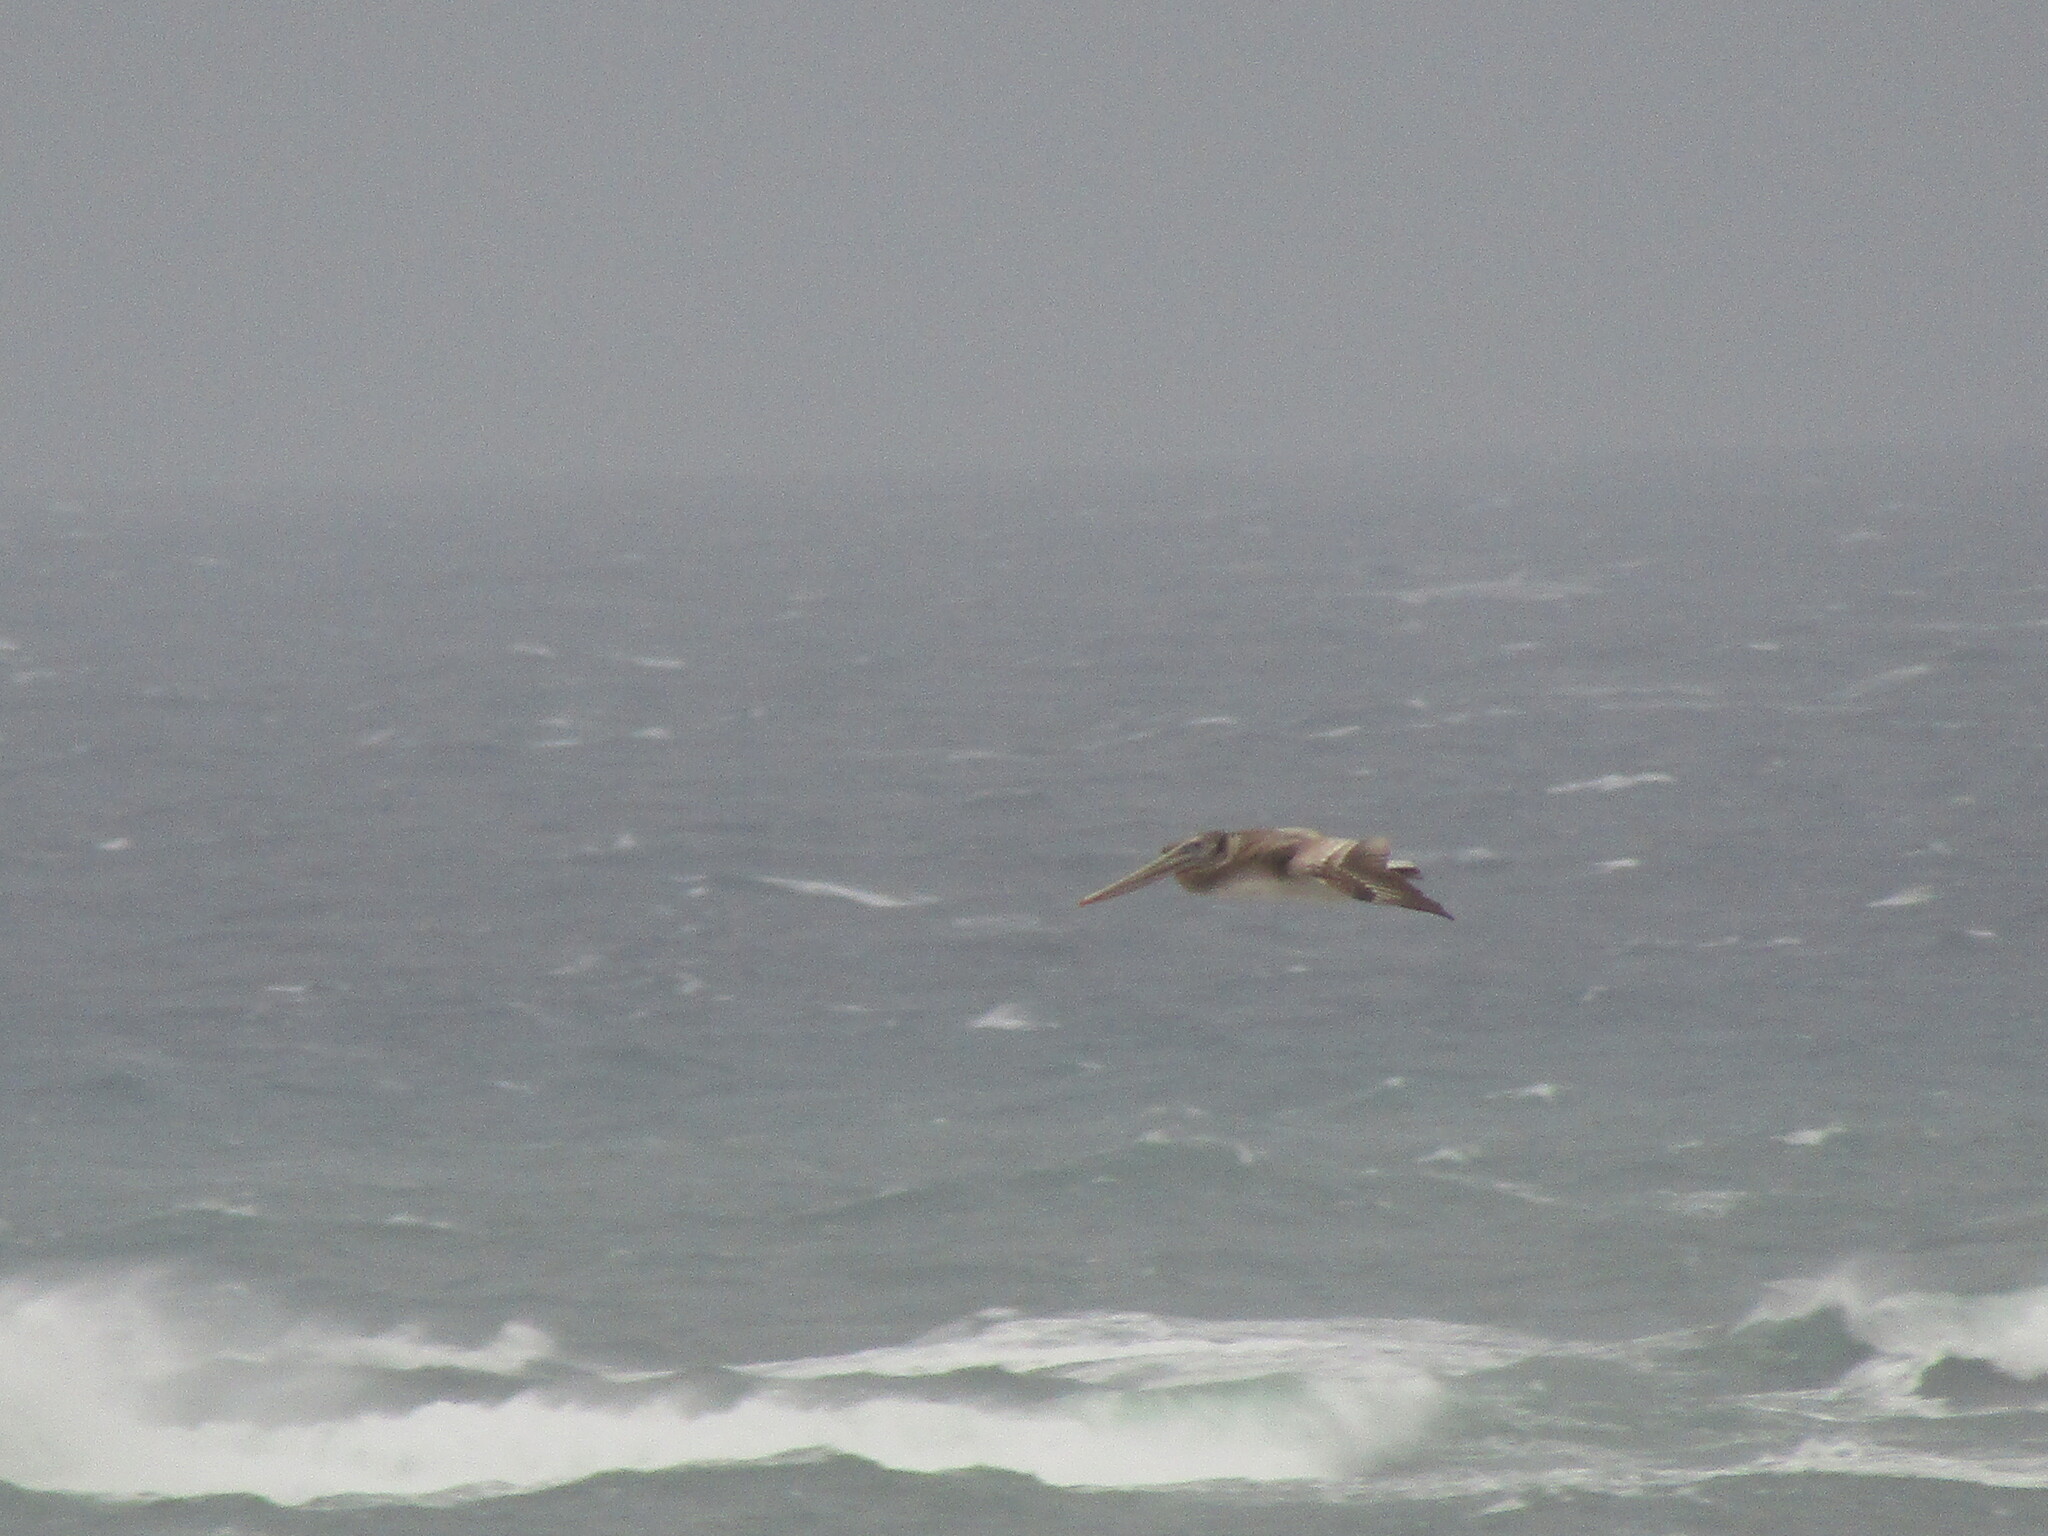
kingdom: Animalia
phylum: Chordata
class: Aves
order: Pelecaniformes
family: Pelecanidae
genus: Pelecanus
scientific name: Pelecanus occidentalis
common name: Brown pelican
